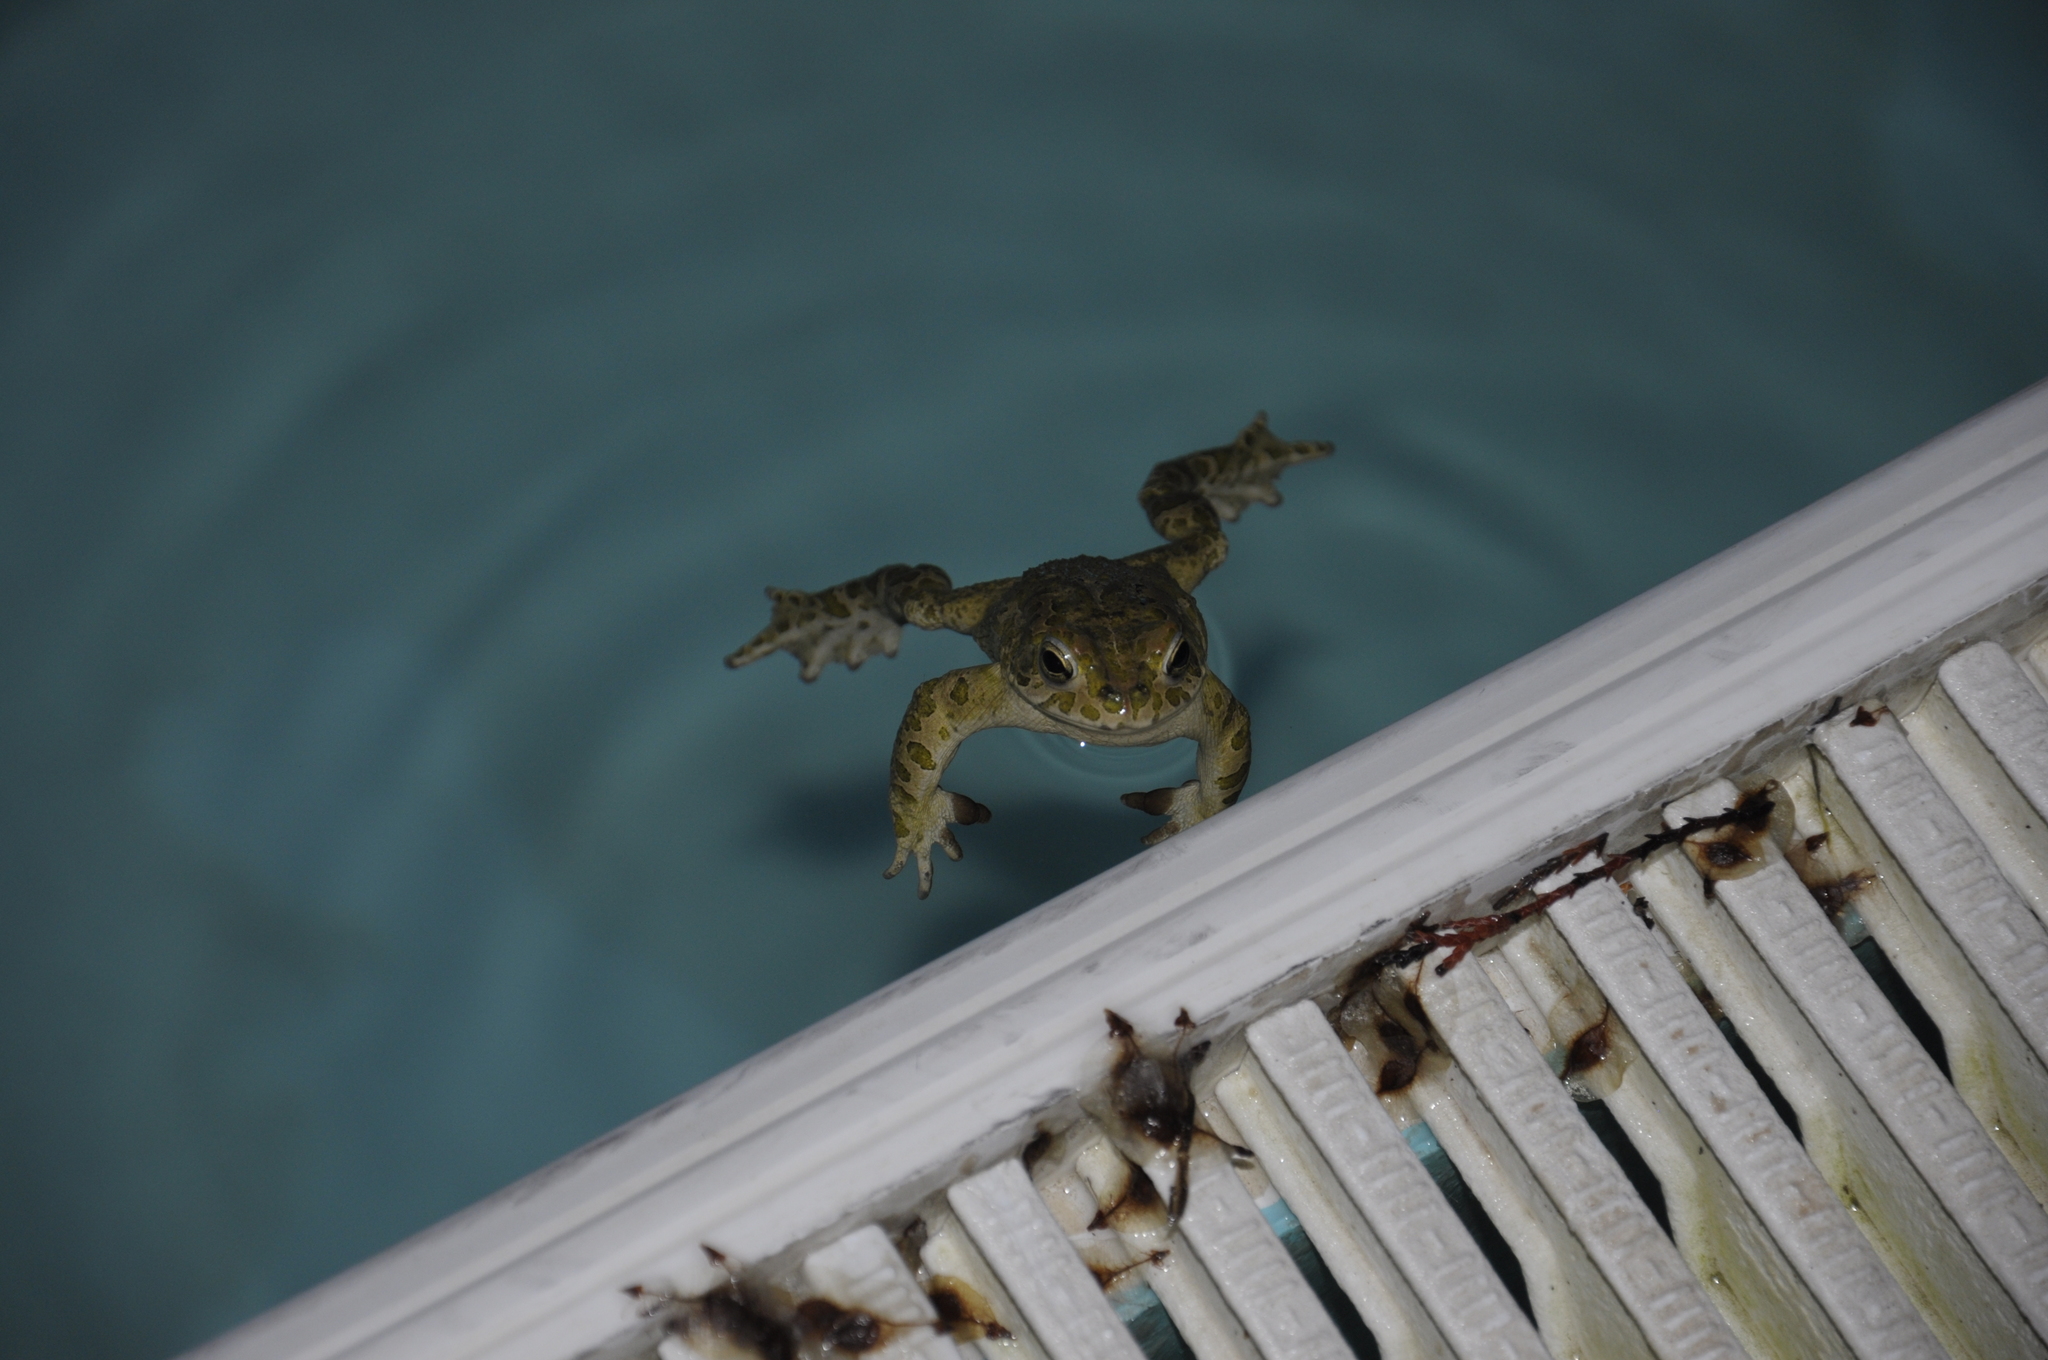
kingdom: Animalia
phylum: Chordata
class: Amphibia
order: Anura
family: Bufonidae
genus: Bufotes
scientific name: Bufotes viridis
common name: European green toad
